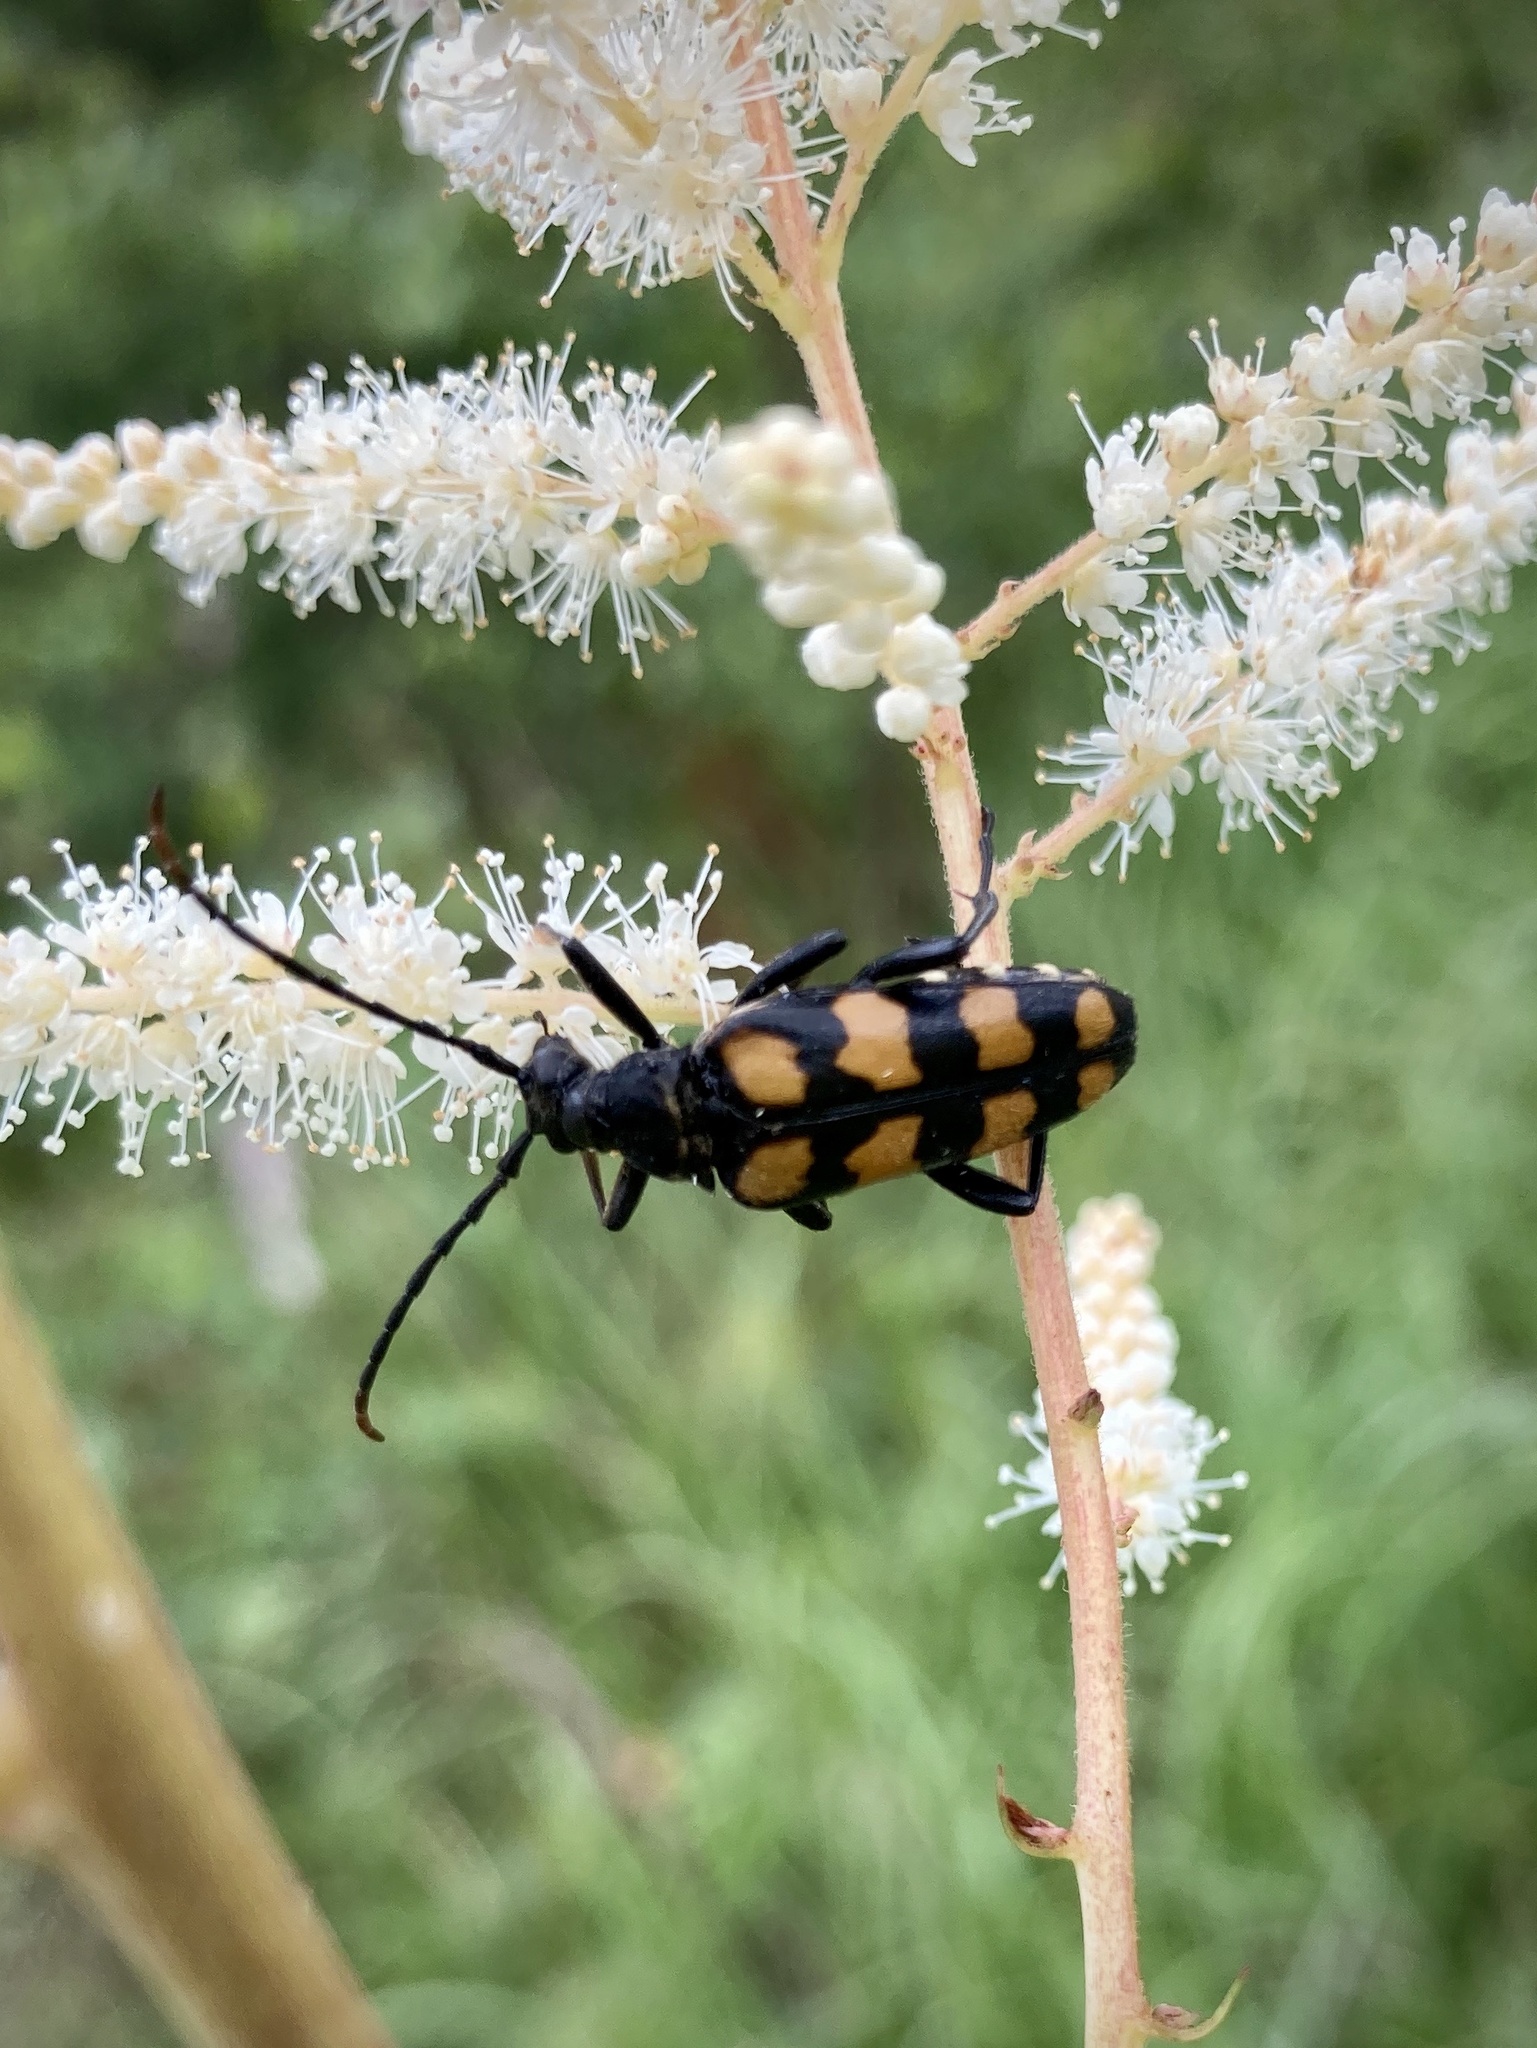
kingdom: Animalia
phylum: Arthropoda
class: Insecta
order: Coleoptera
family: Cerambycidae
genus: Leptura
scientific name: Leptura quadrifasciata
